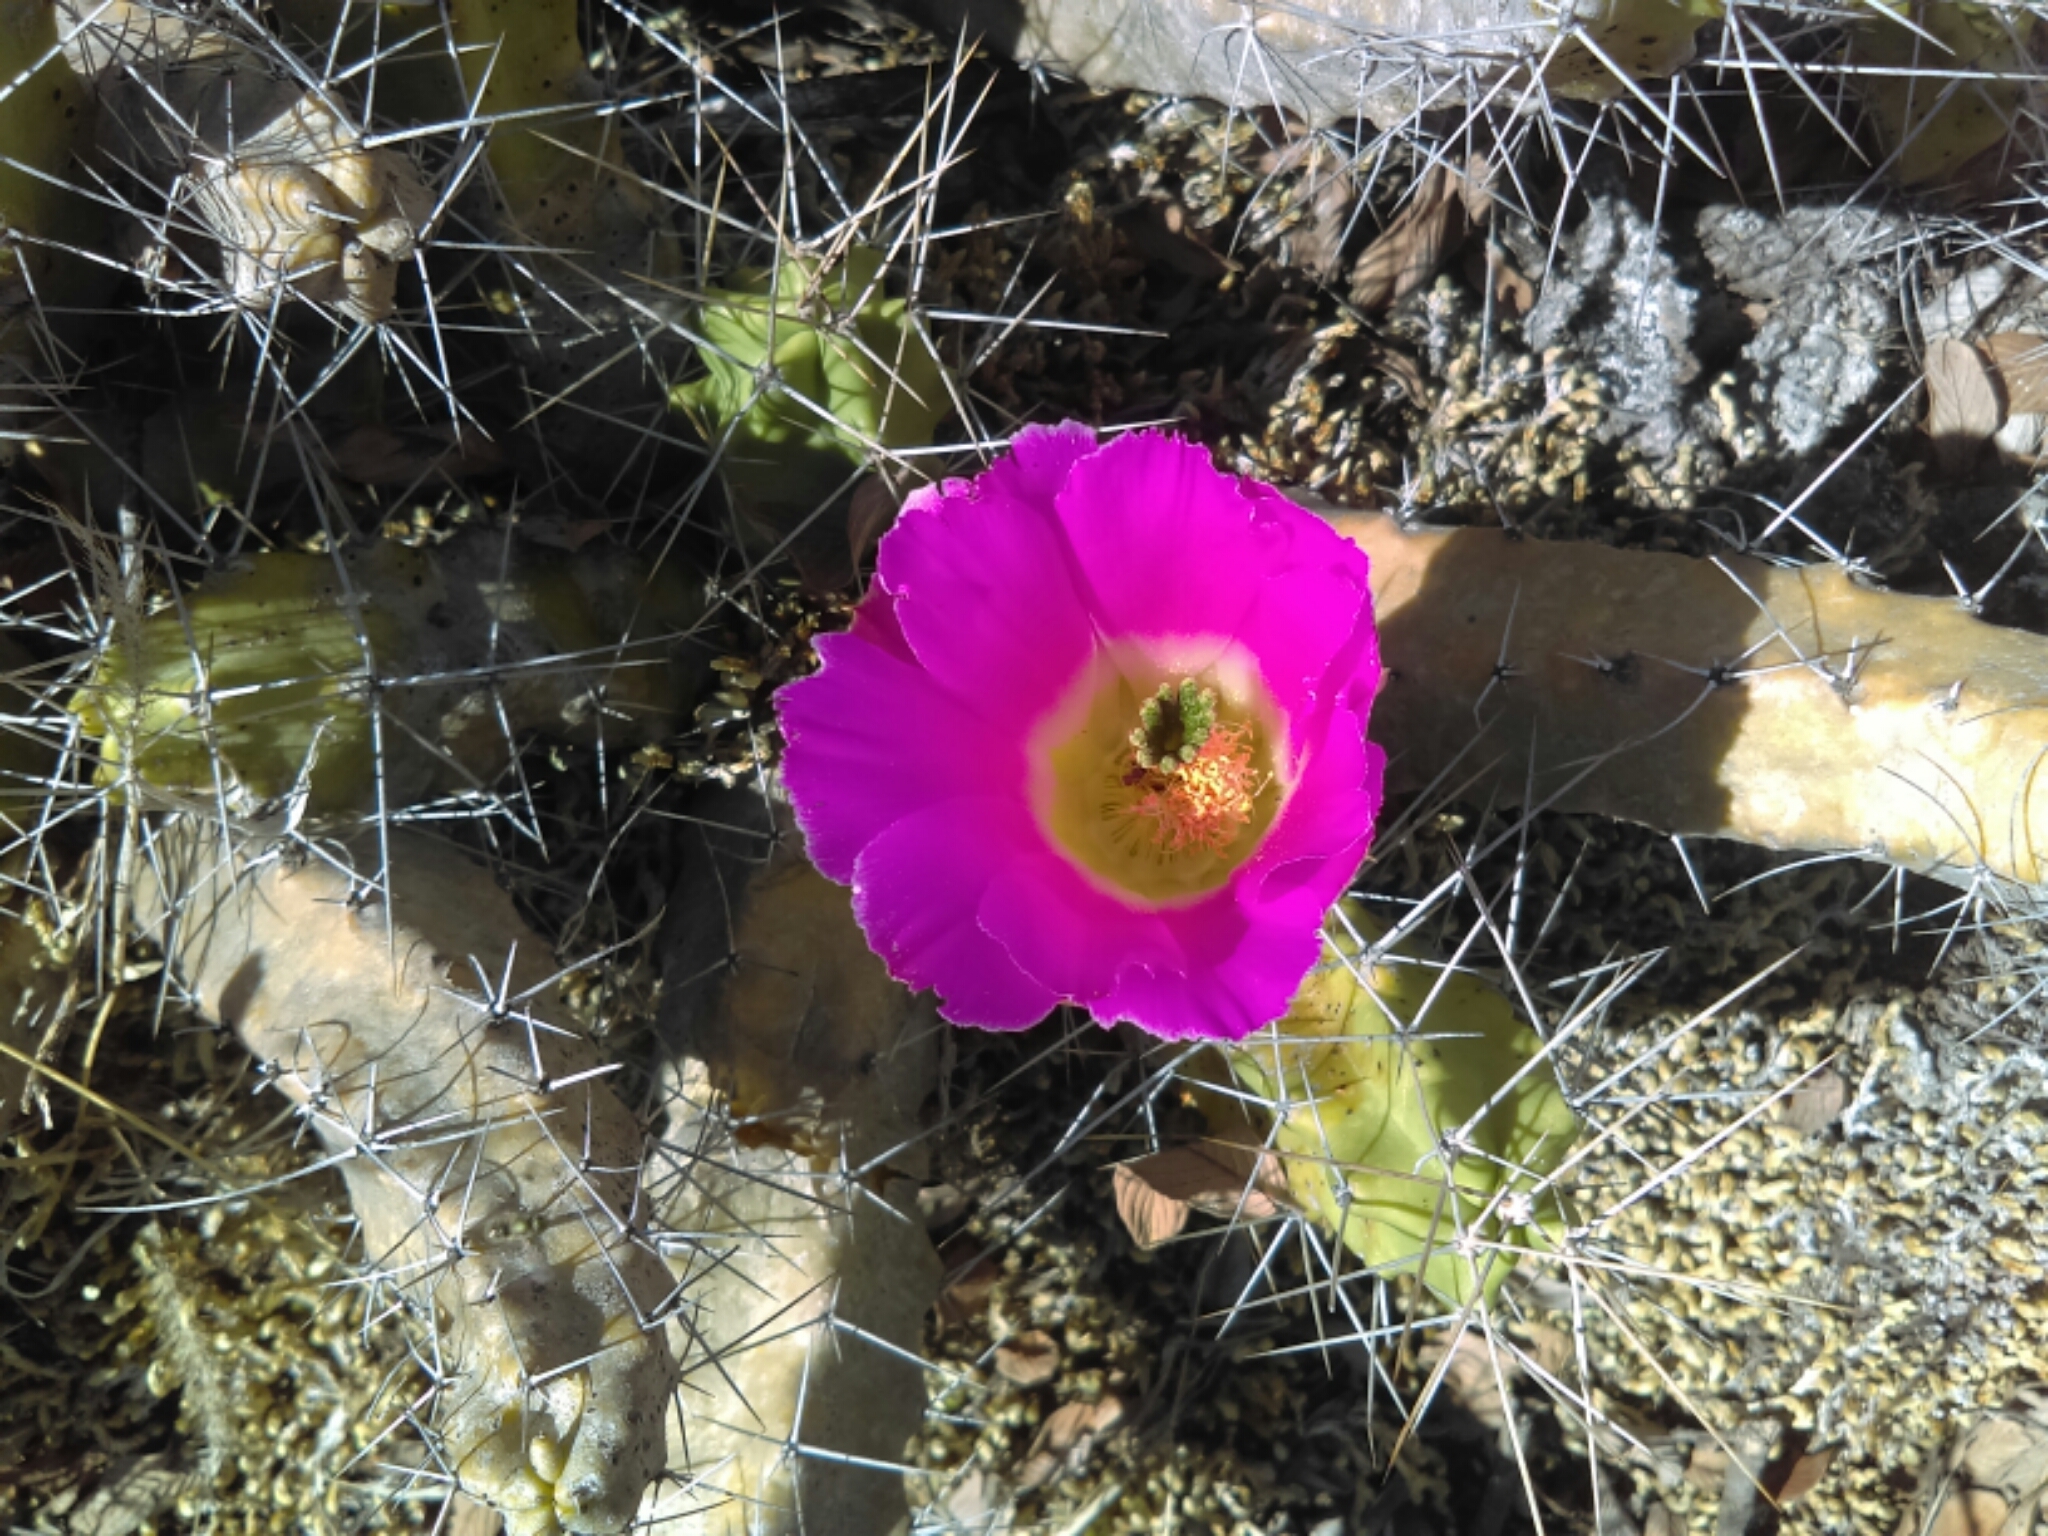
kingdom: Plantae
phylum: Tracheophyta
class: Magnoliopsida
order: Caryophyllales
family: Cactaceae
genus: Echinocereus
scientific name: Echinocereus pentalophus
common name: Ladyfinger cactus
